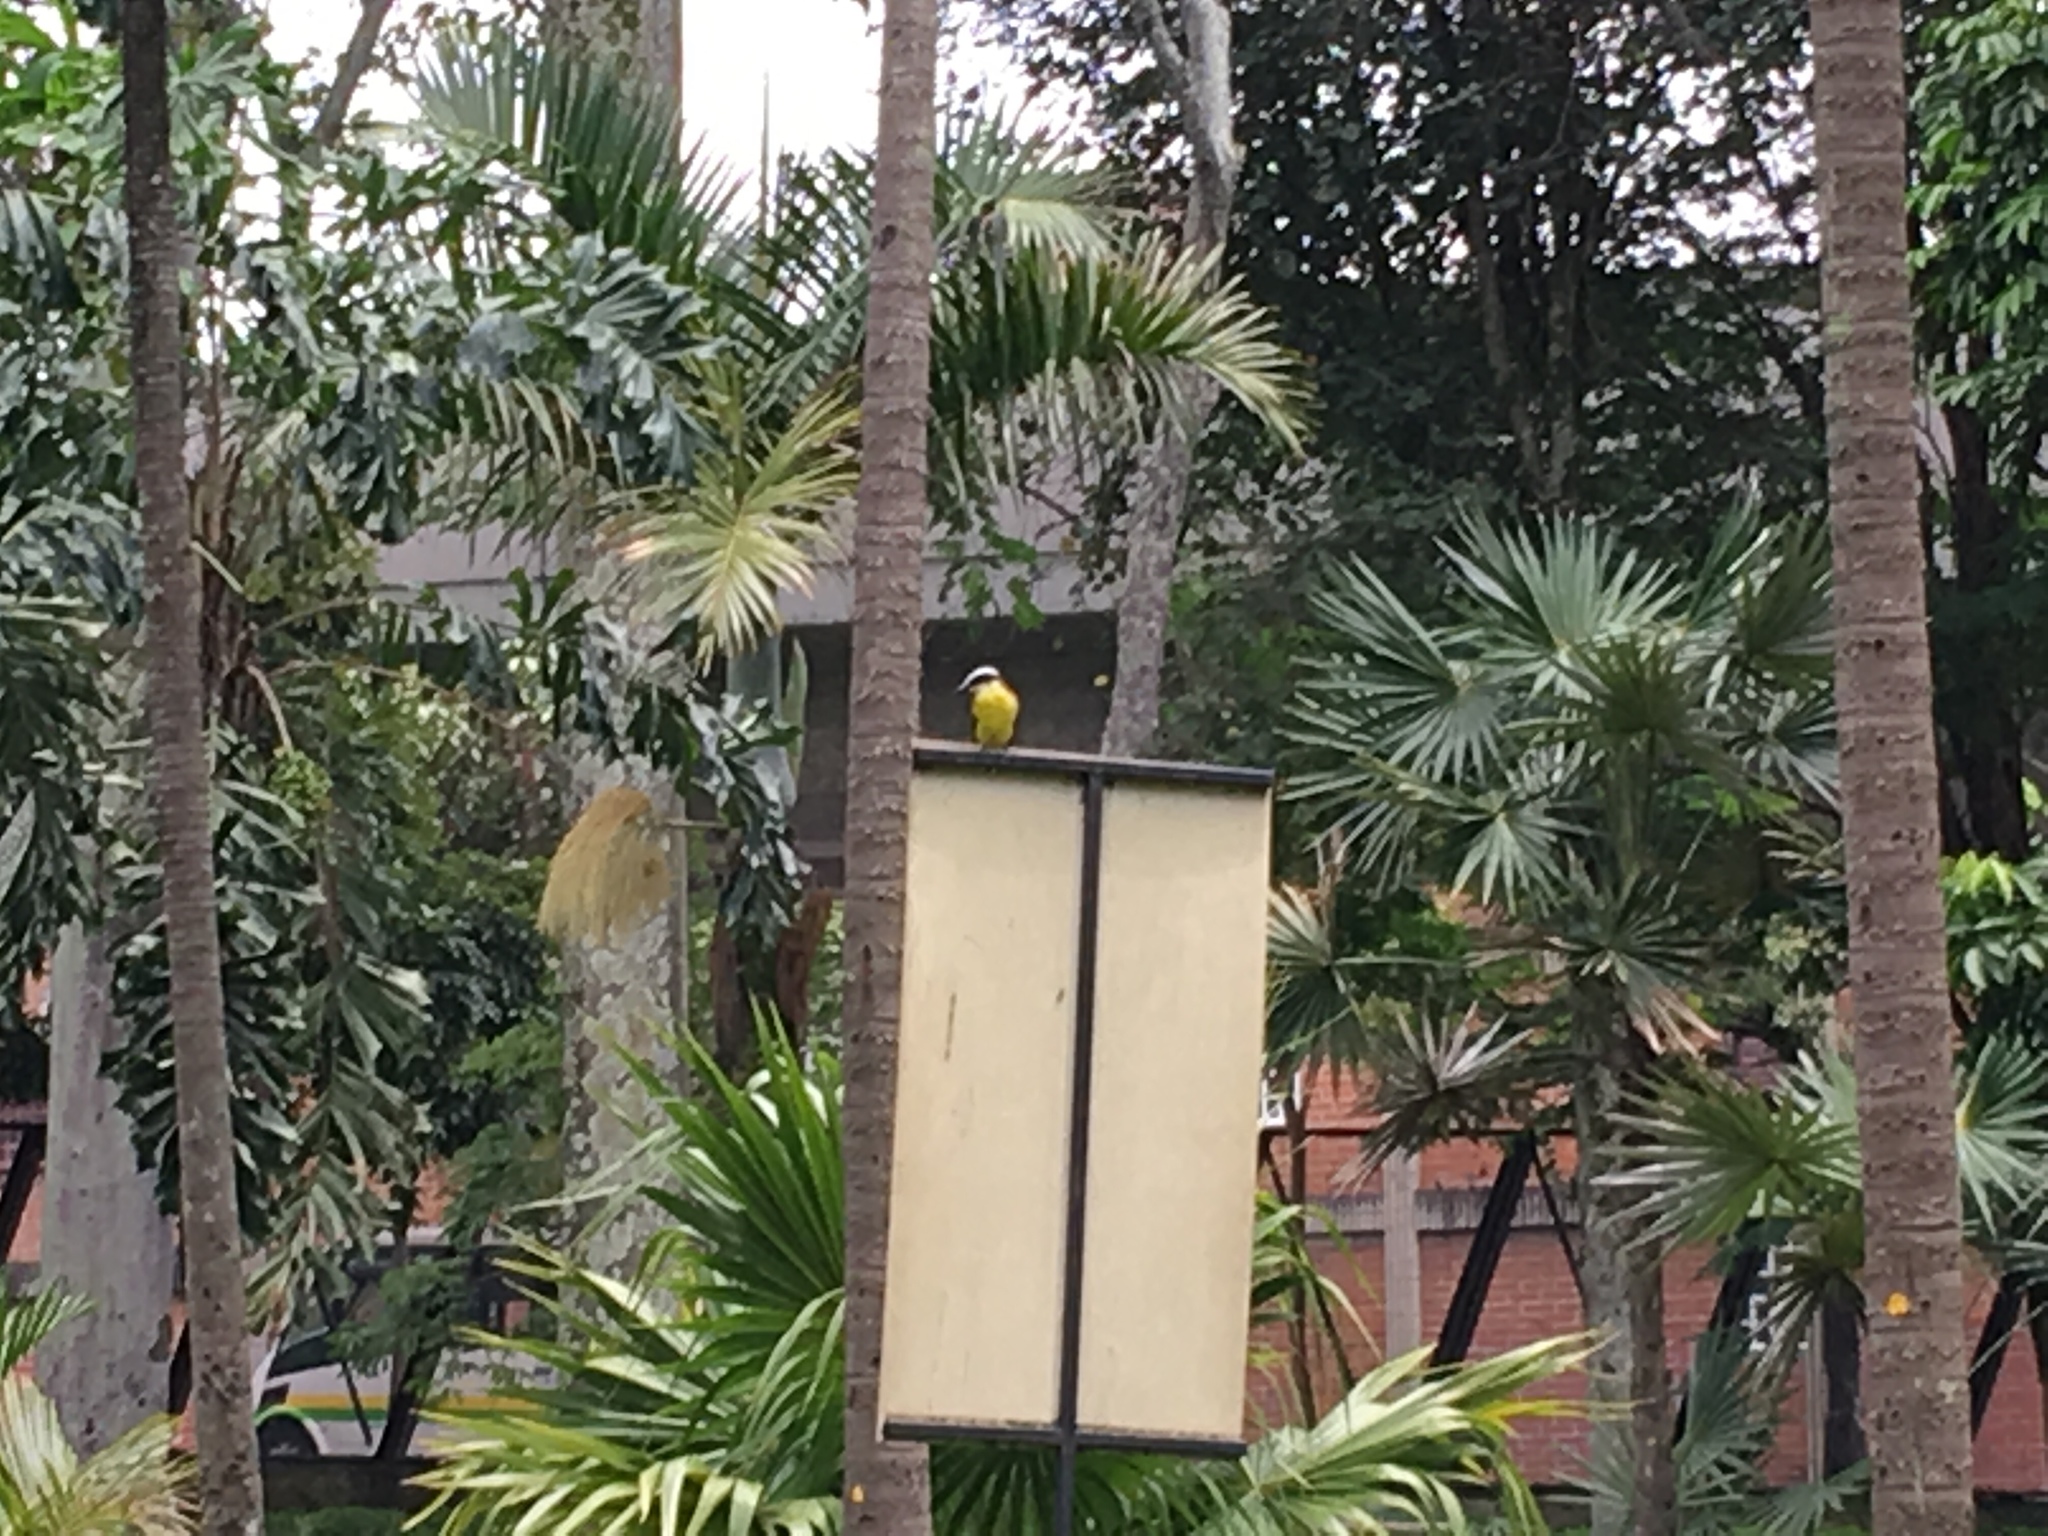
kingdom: Animalia
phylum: Chordata
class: Aves
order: Passeriformes
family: Tyrannidae
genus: Pitangus
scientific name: Pitangus sulphuratus
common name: Great kiskadee
